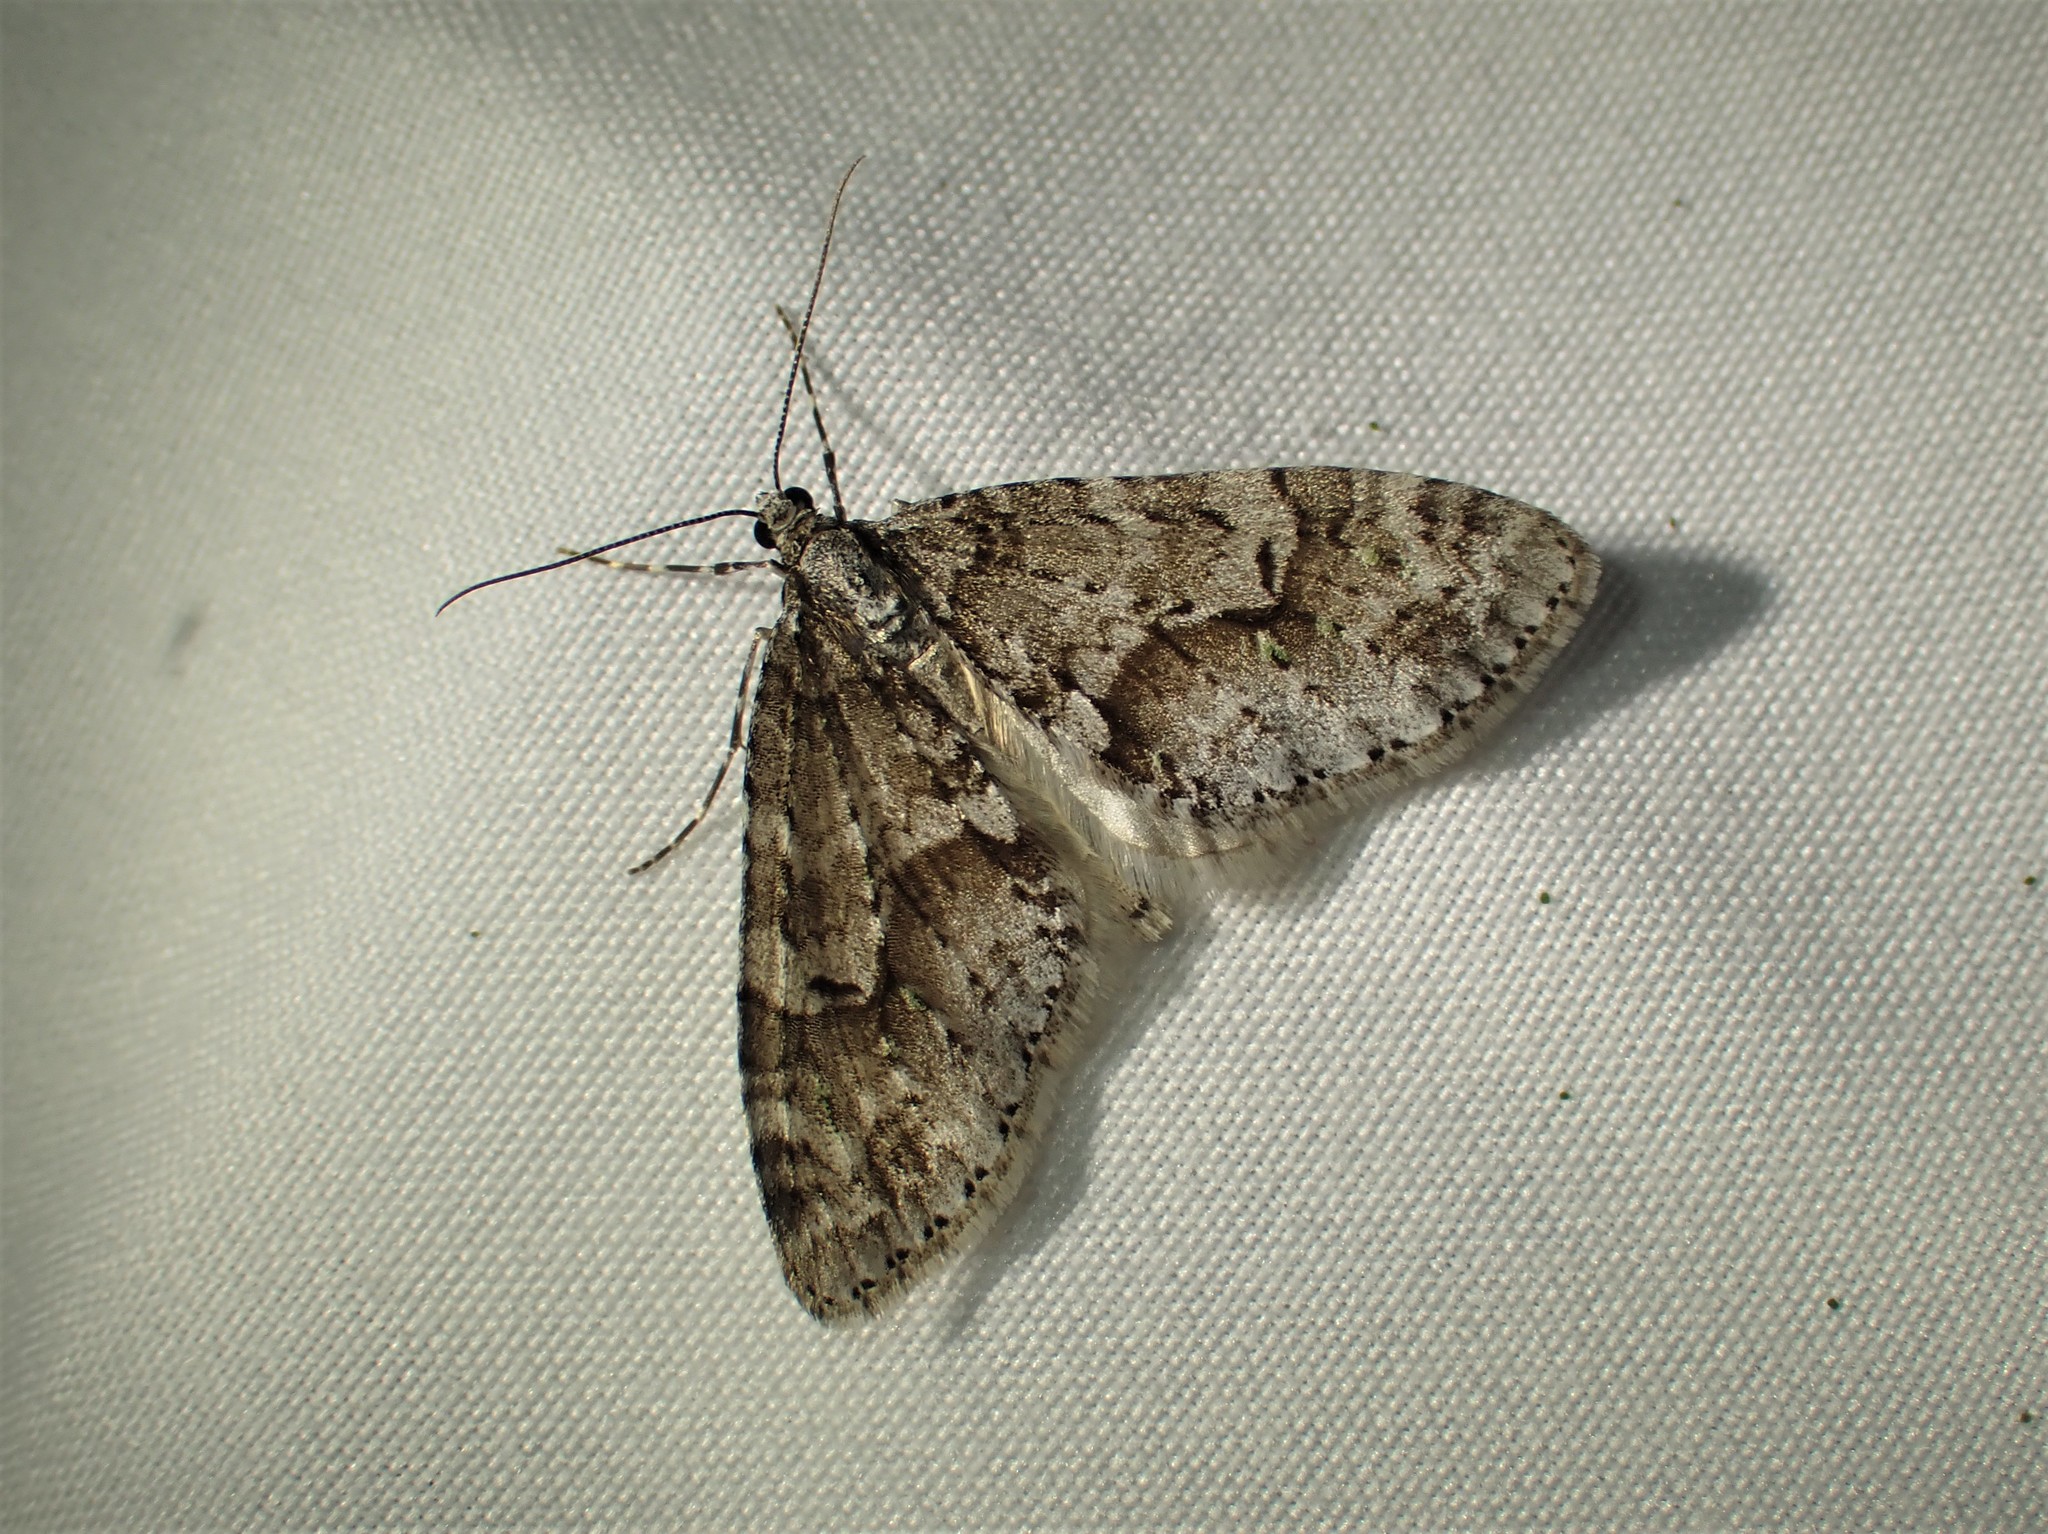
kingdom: Animalia
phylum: Arthropoda
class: Insecta
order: Lepidoptera
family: Geometridae
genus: Cladara
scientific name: Cladara limitaria
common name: Mottled gray carpet
